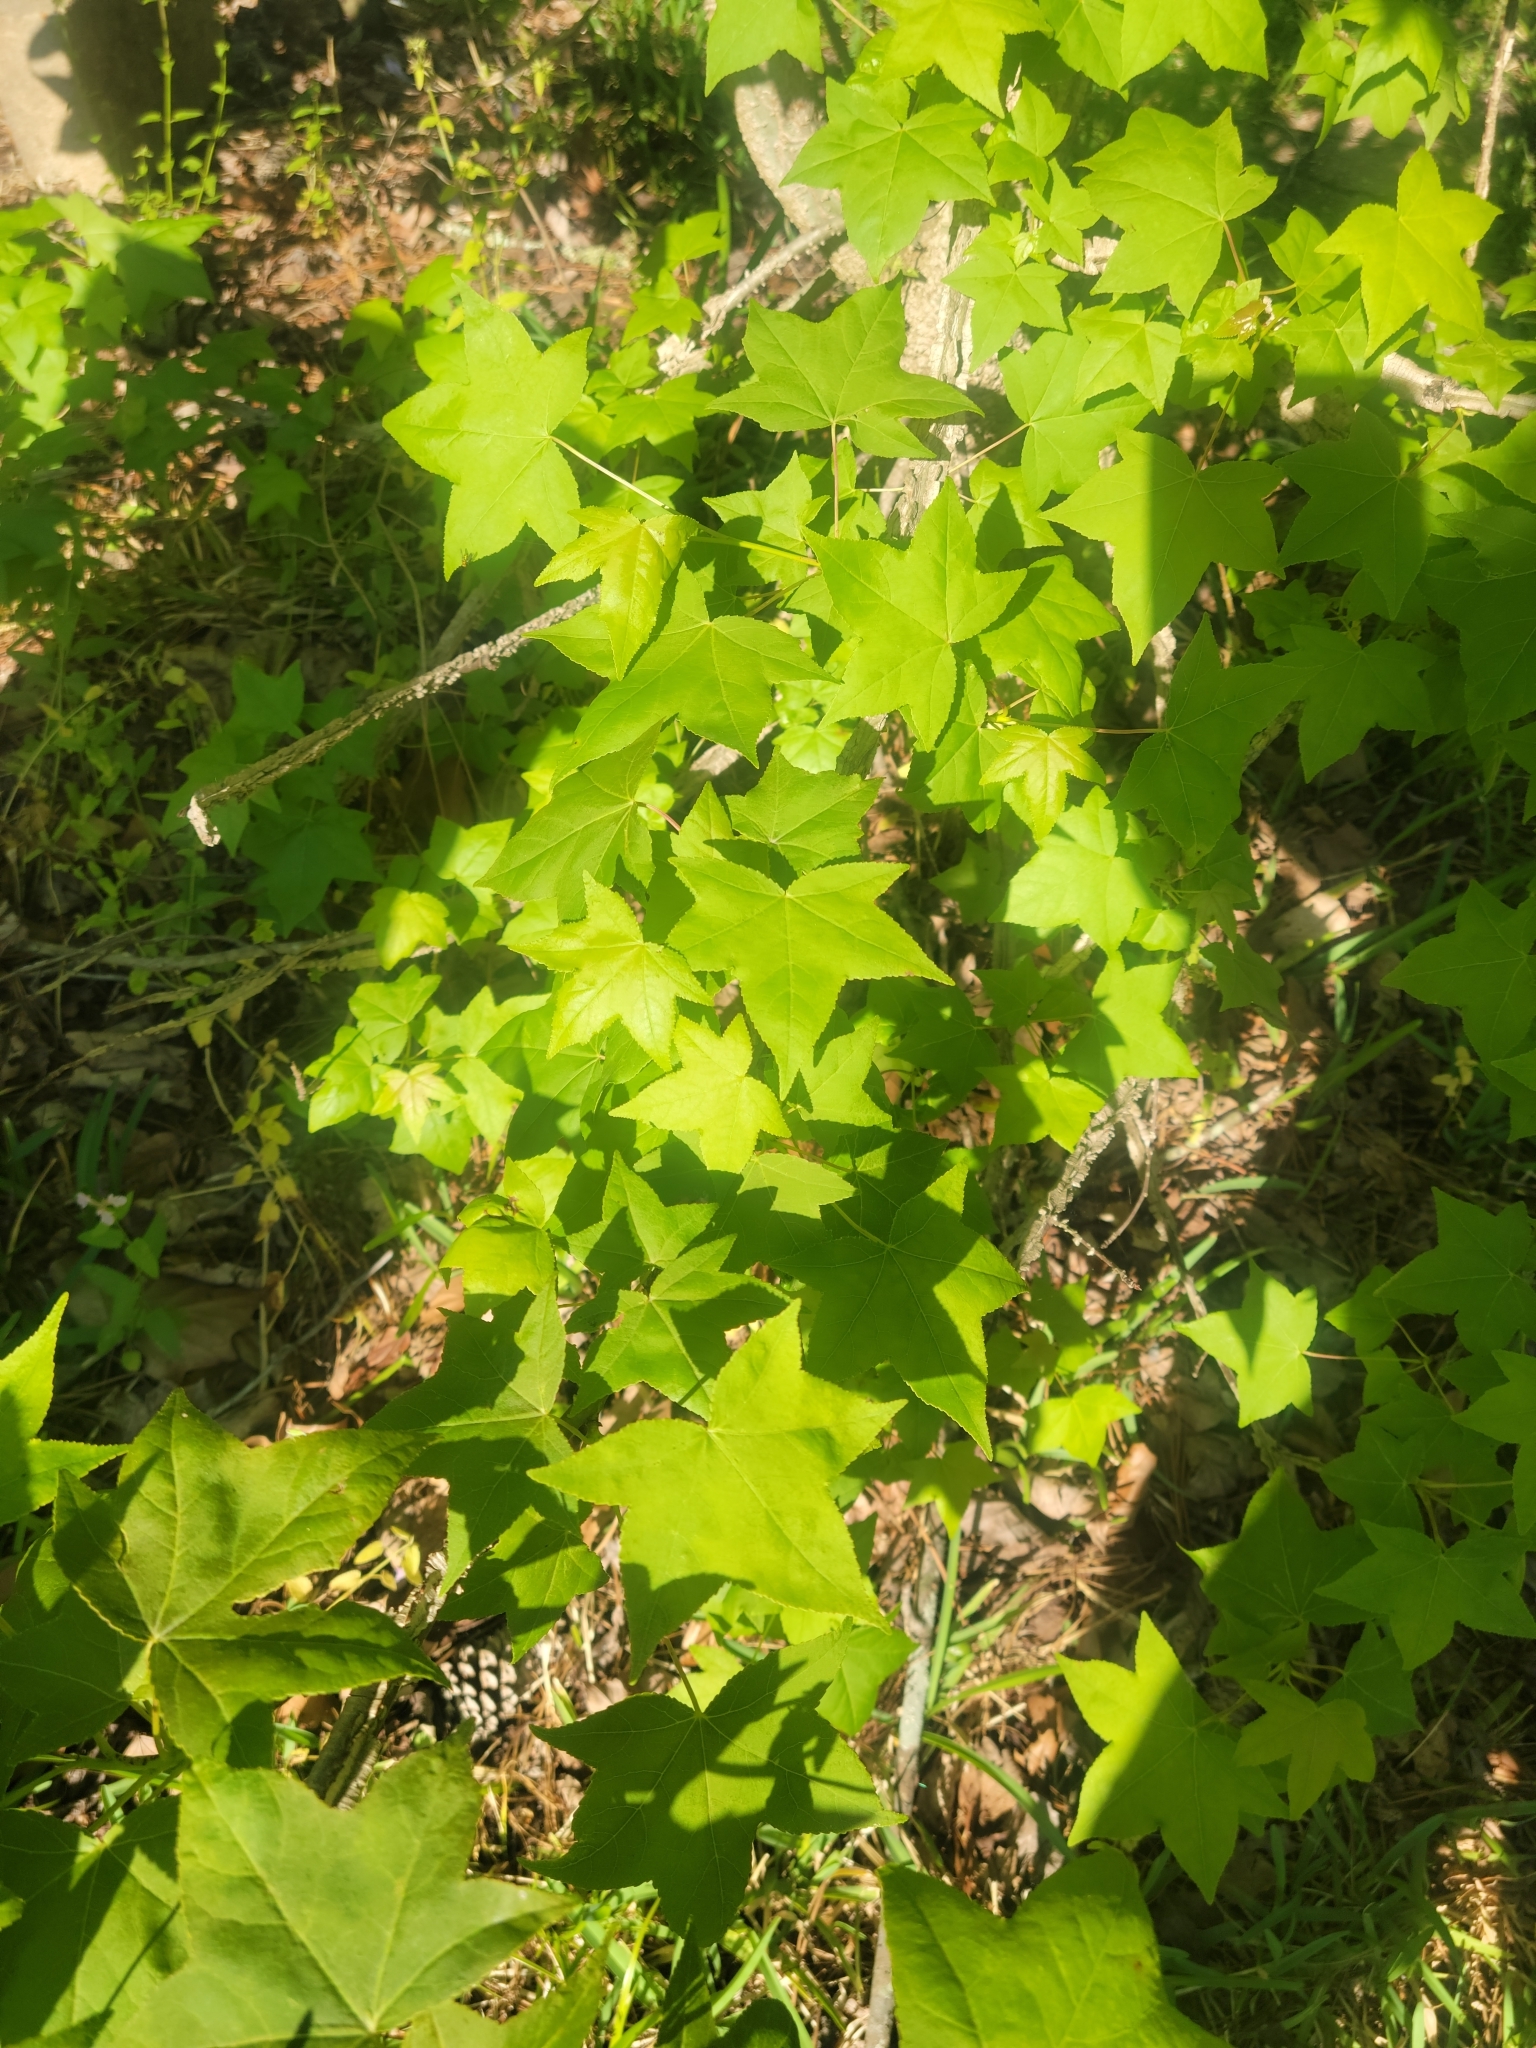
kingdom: Plantae
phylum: Tracheophyta
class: Magnoliopsida
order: Saxifragales
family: Altingiaceae
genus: Liquidambar
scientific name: Liquidambar styraciflua
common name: Sweet gum
